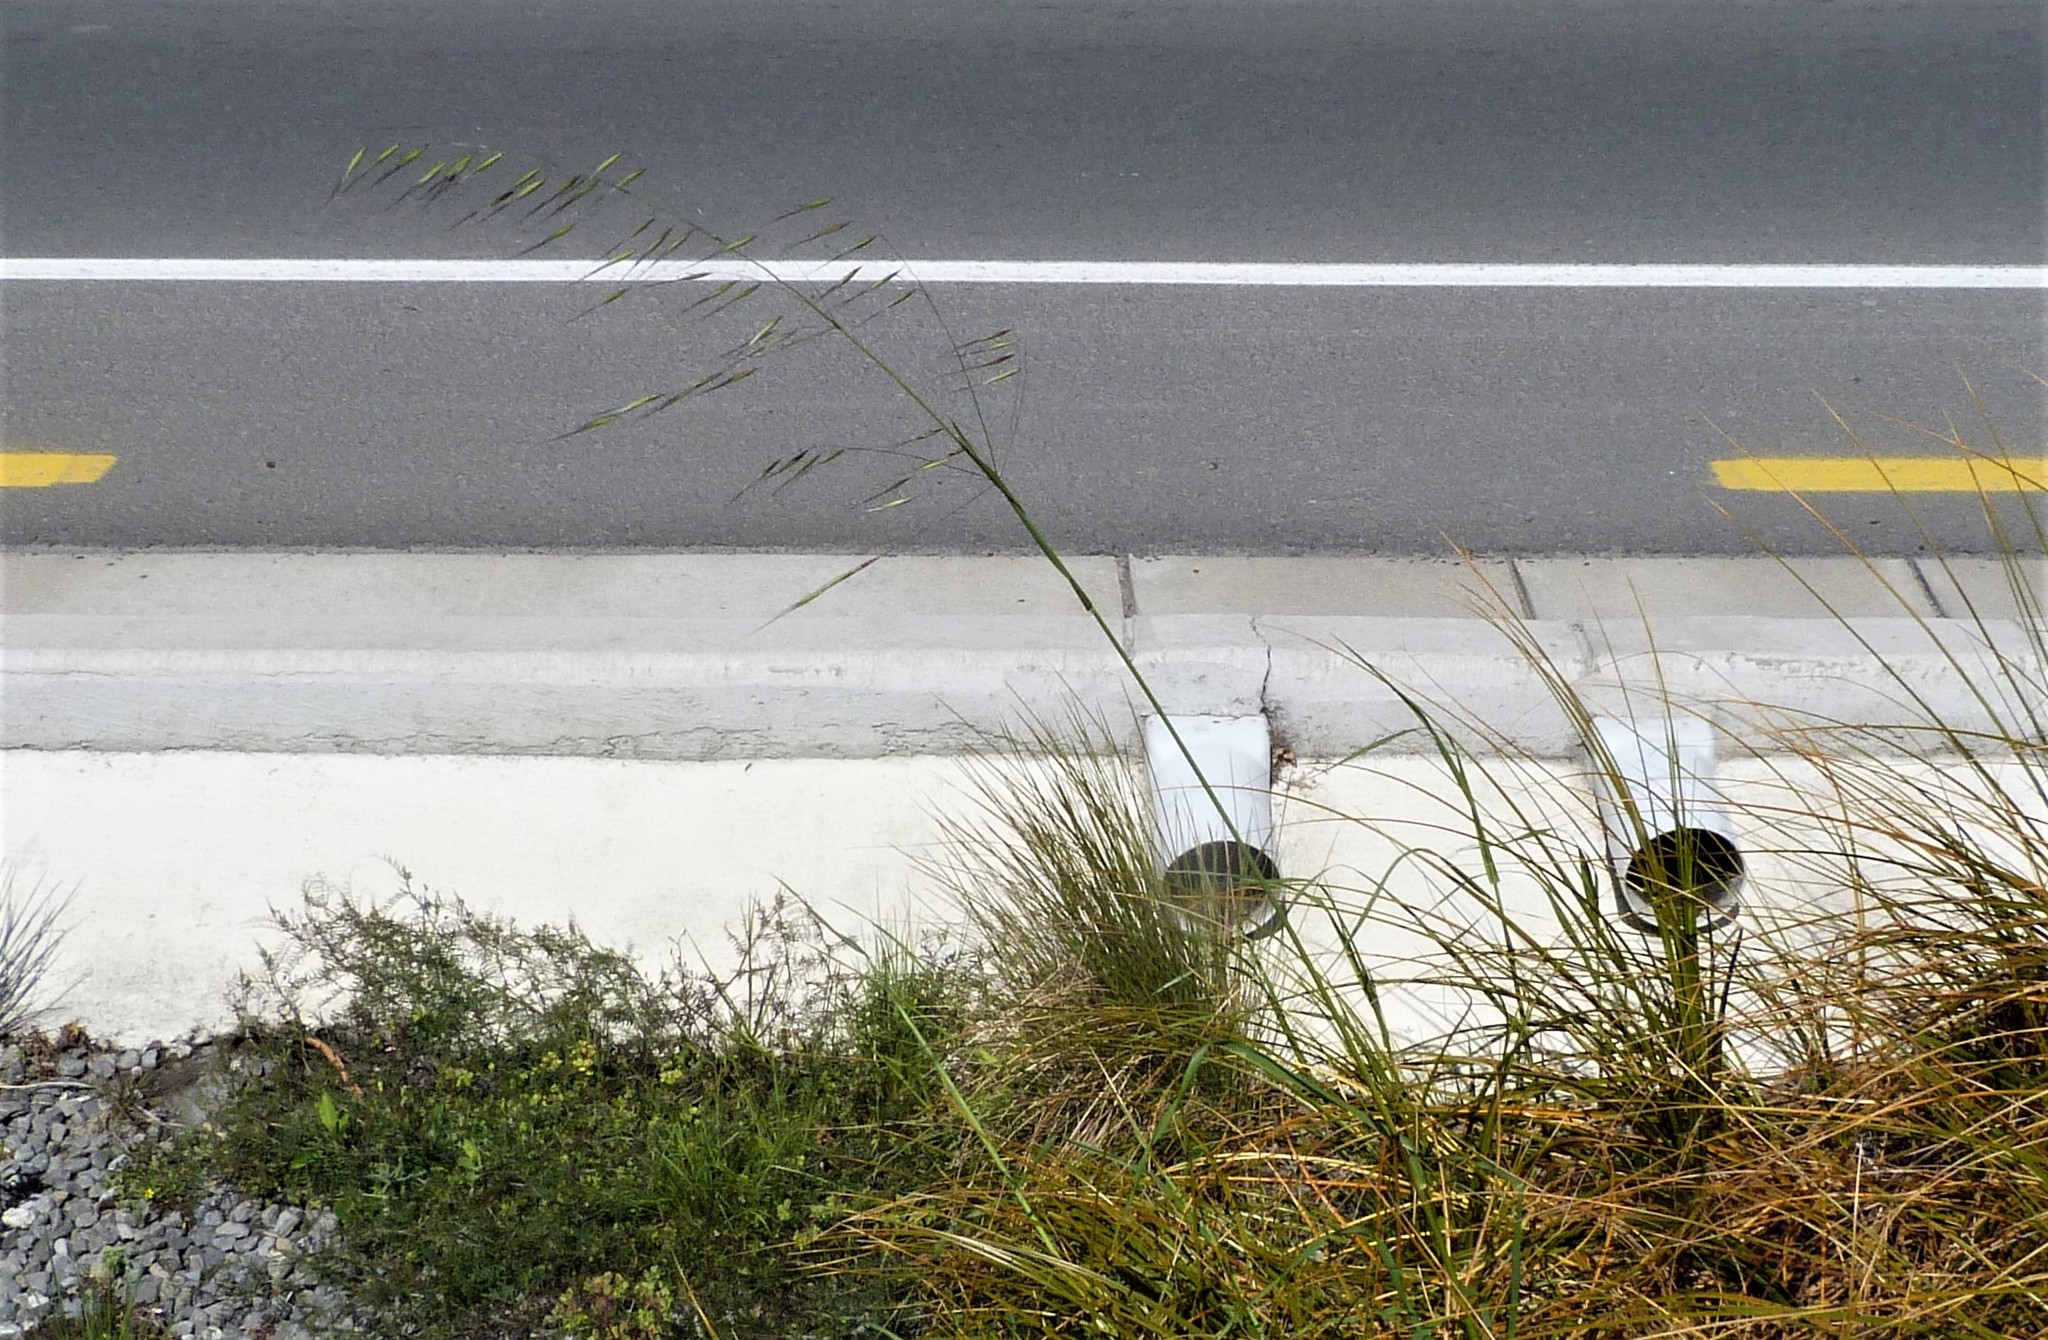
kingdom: Plantae
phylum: Tracheophyta
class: Liliopsida
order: Poales
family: Poaceae
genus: Avena
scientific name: Avena sativa
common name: Oat
